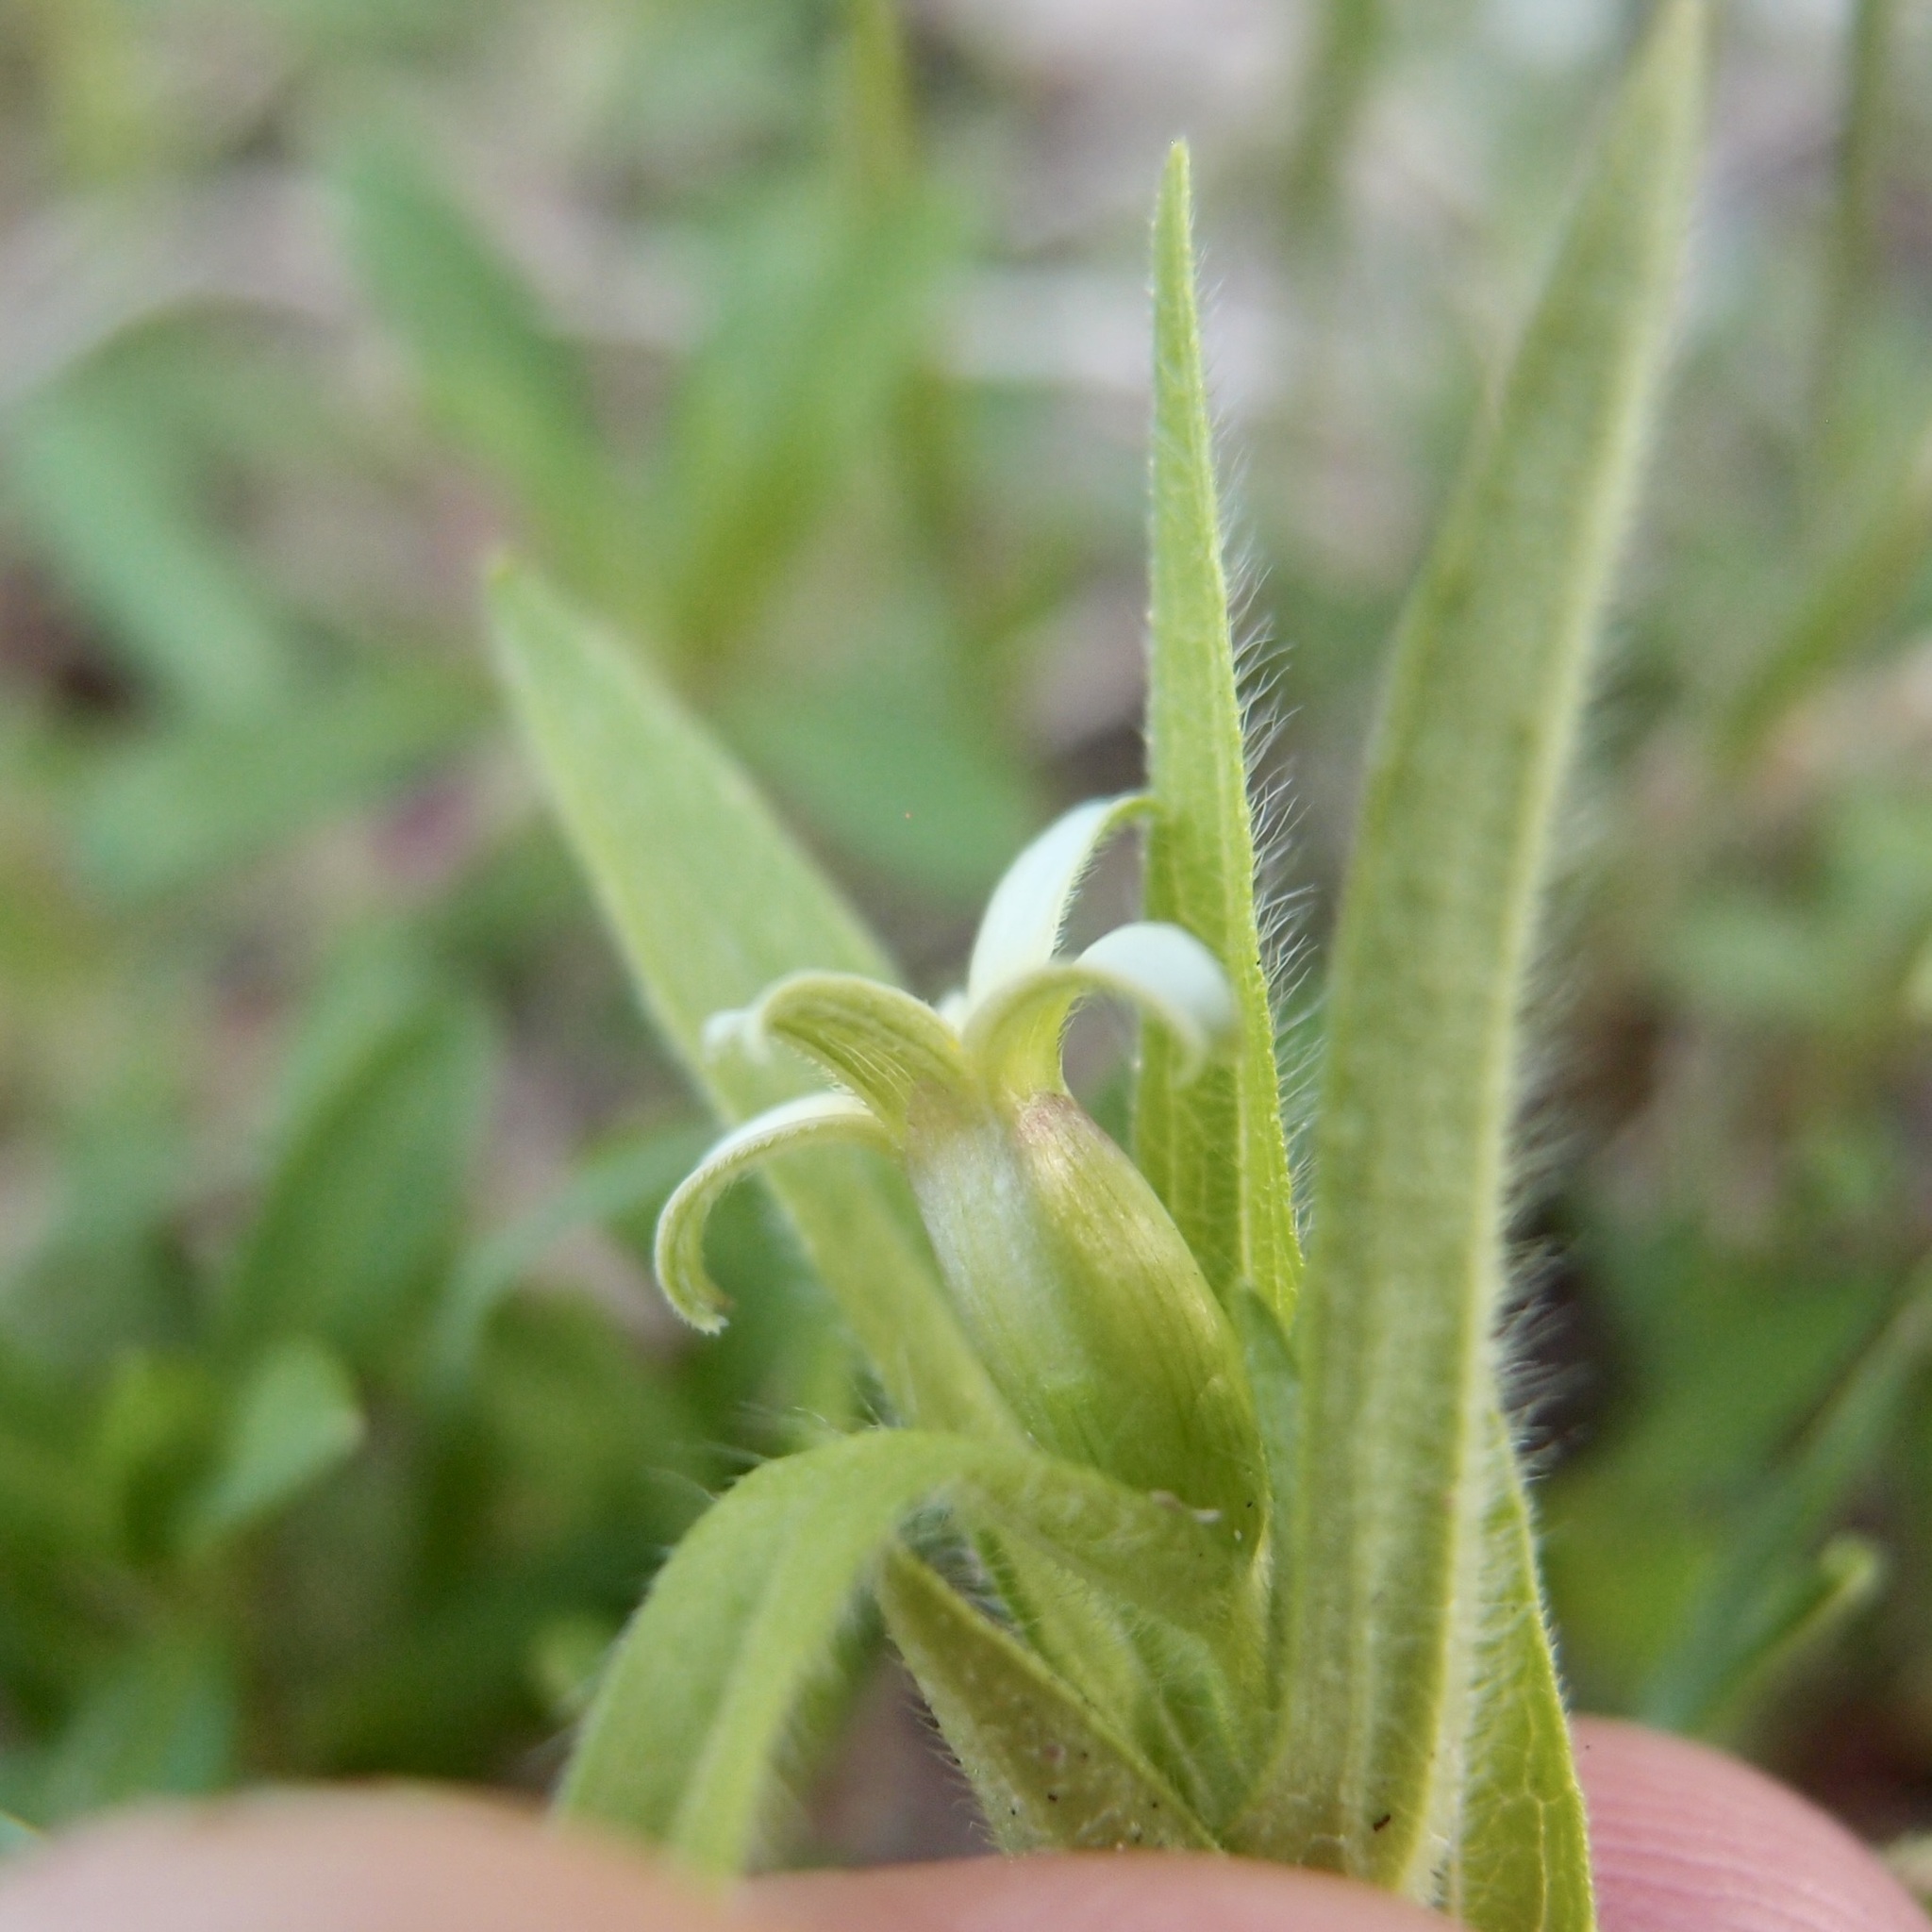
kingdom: Plantae
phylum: Tracheophyta
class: Magnoliopsida
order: Asterales
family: Asteraceae
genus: Zinnia
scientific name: Zinnia zinnioides
